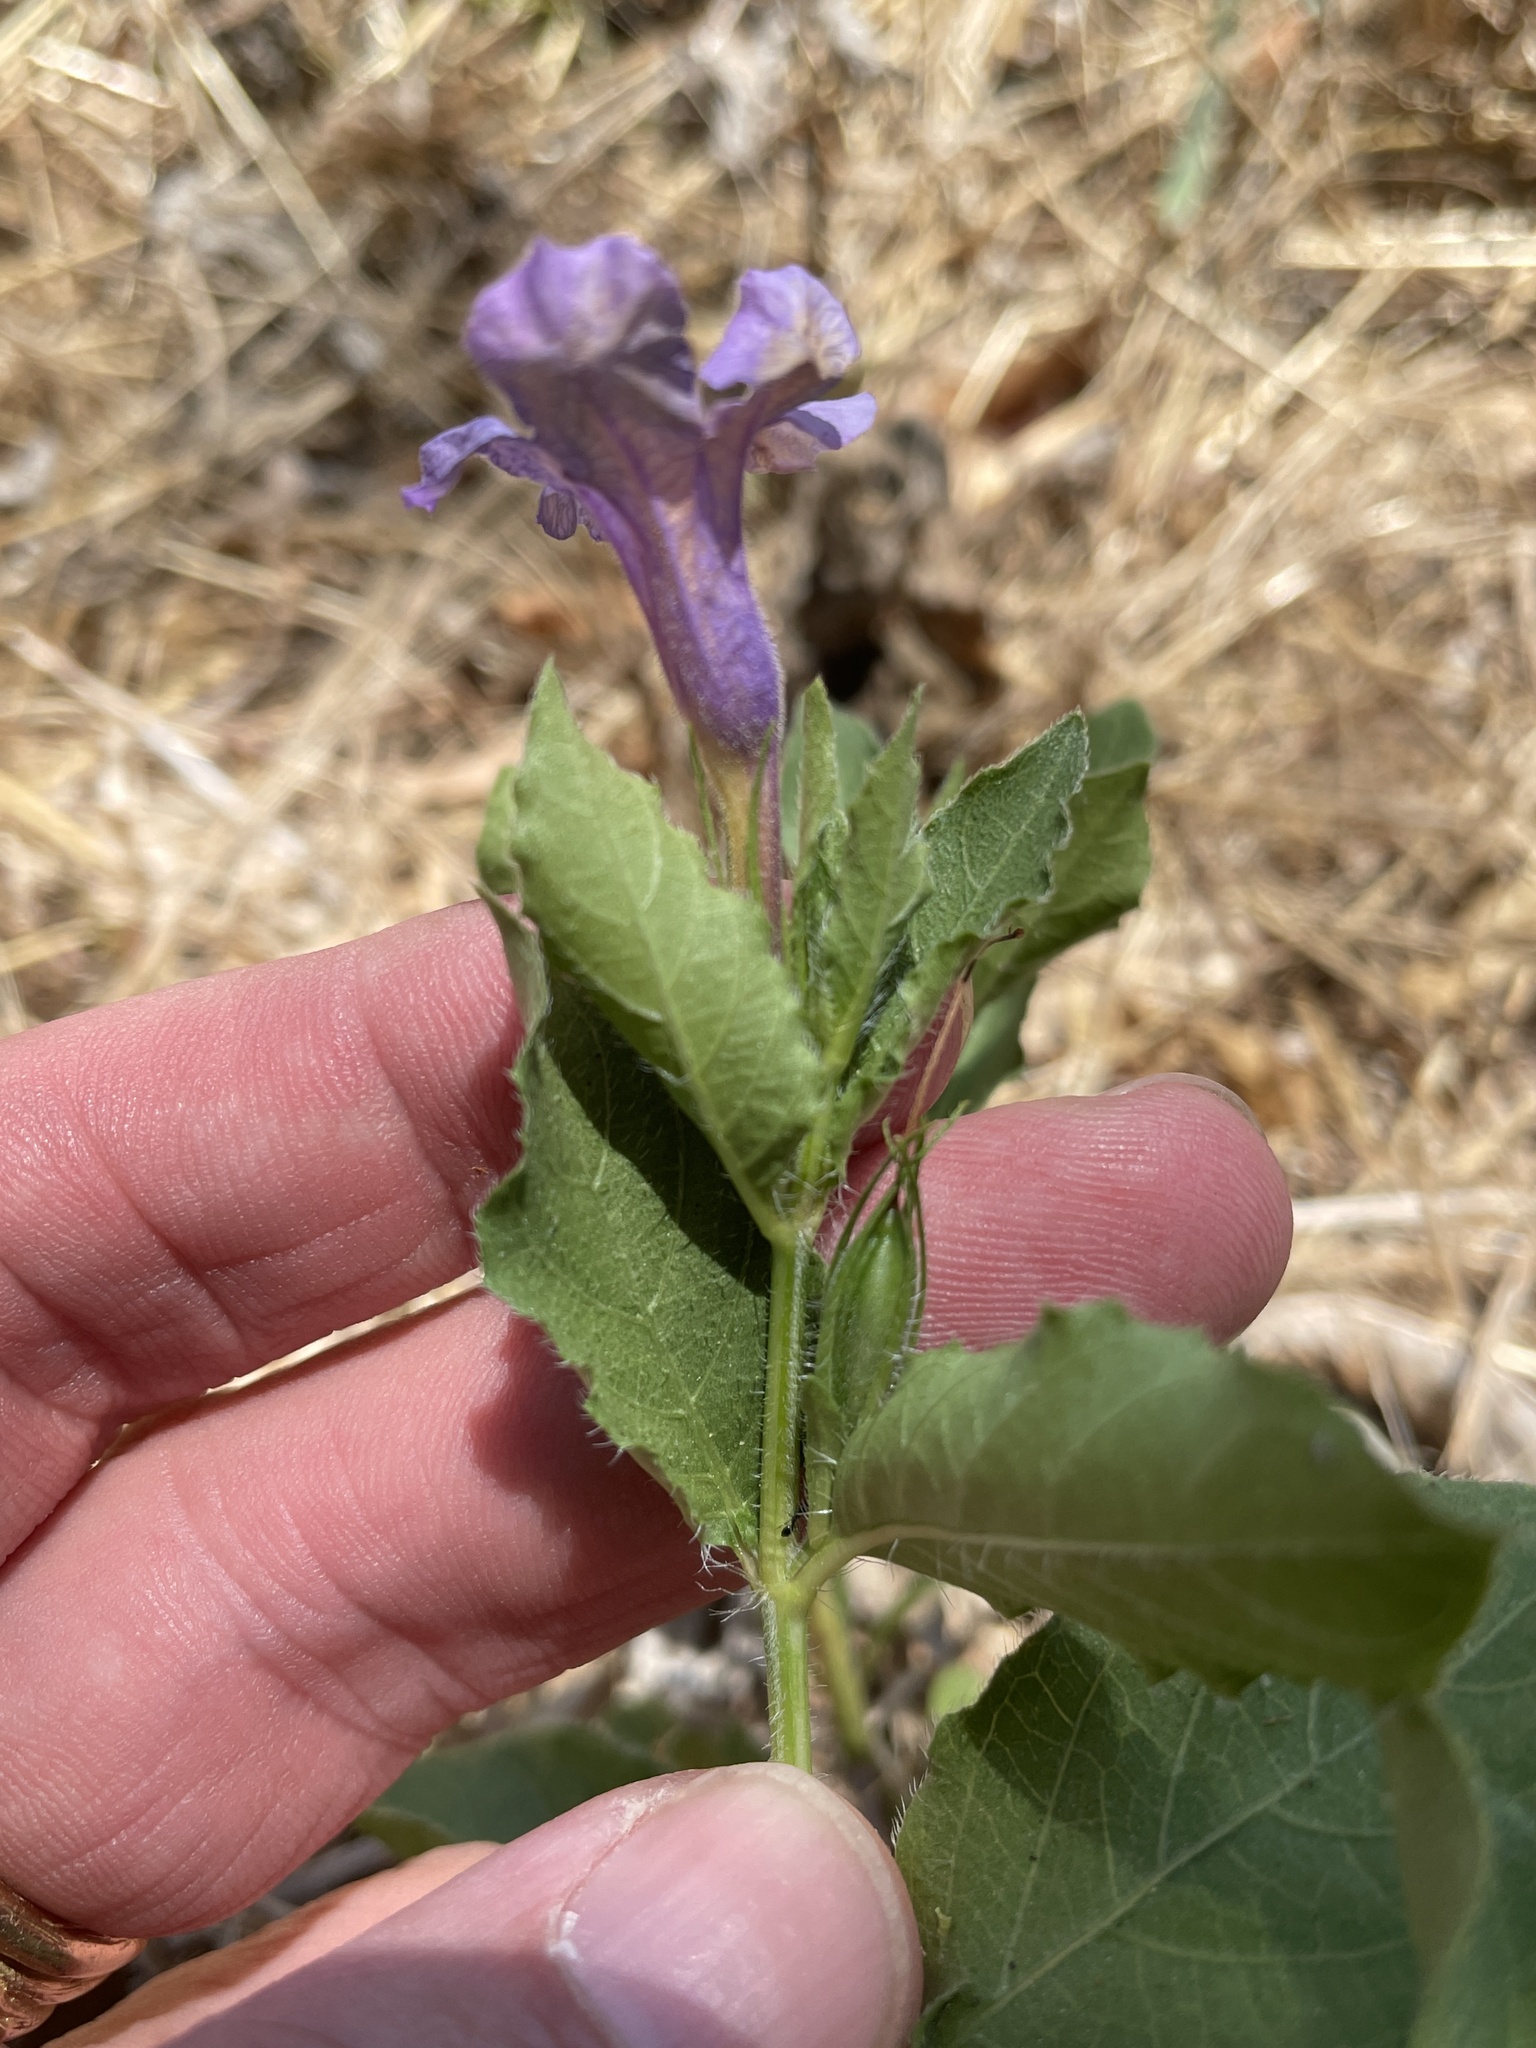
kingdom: Plantae
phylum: Tracheophyta
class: Magnoliopsida
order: Lamiales
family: Acanthaceae
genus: Ruellia
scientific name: Ruellia ciliatiflora
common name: Hairyflower wild petunia
